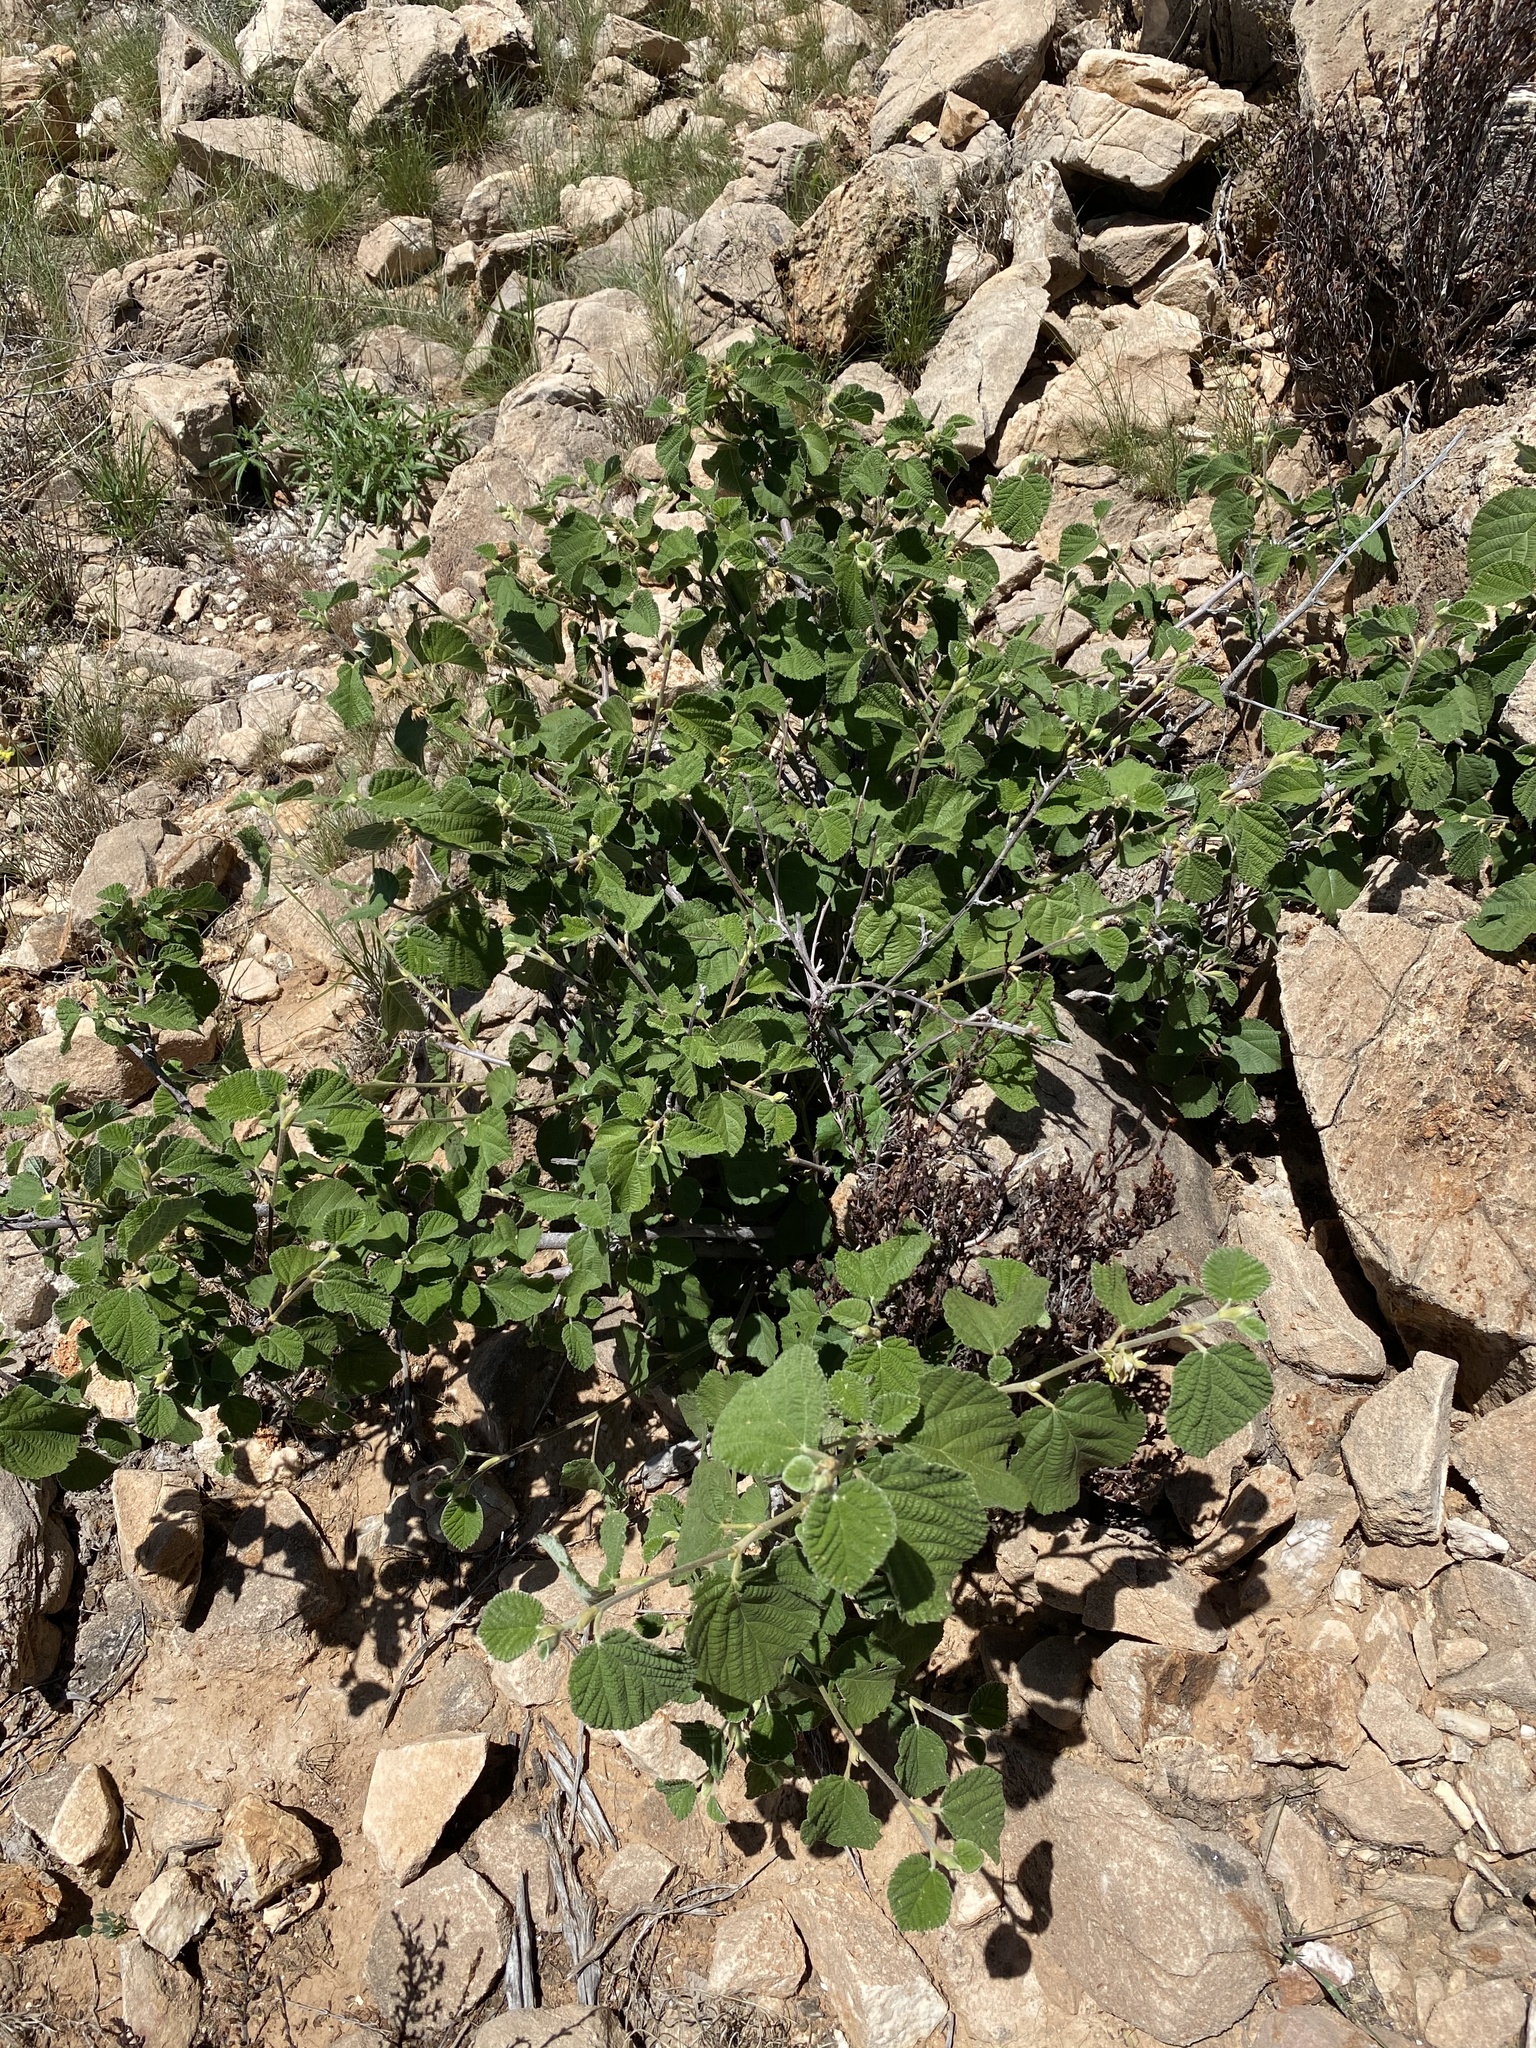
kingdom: Plantae
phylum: Tracheophyta
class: Magnoliopsida
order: Malvales
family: Malvaceae
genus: Grewia
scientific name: Grewia villosa
